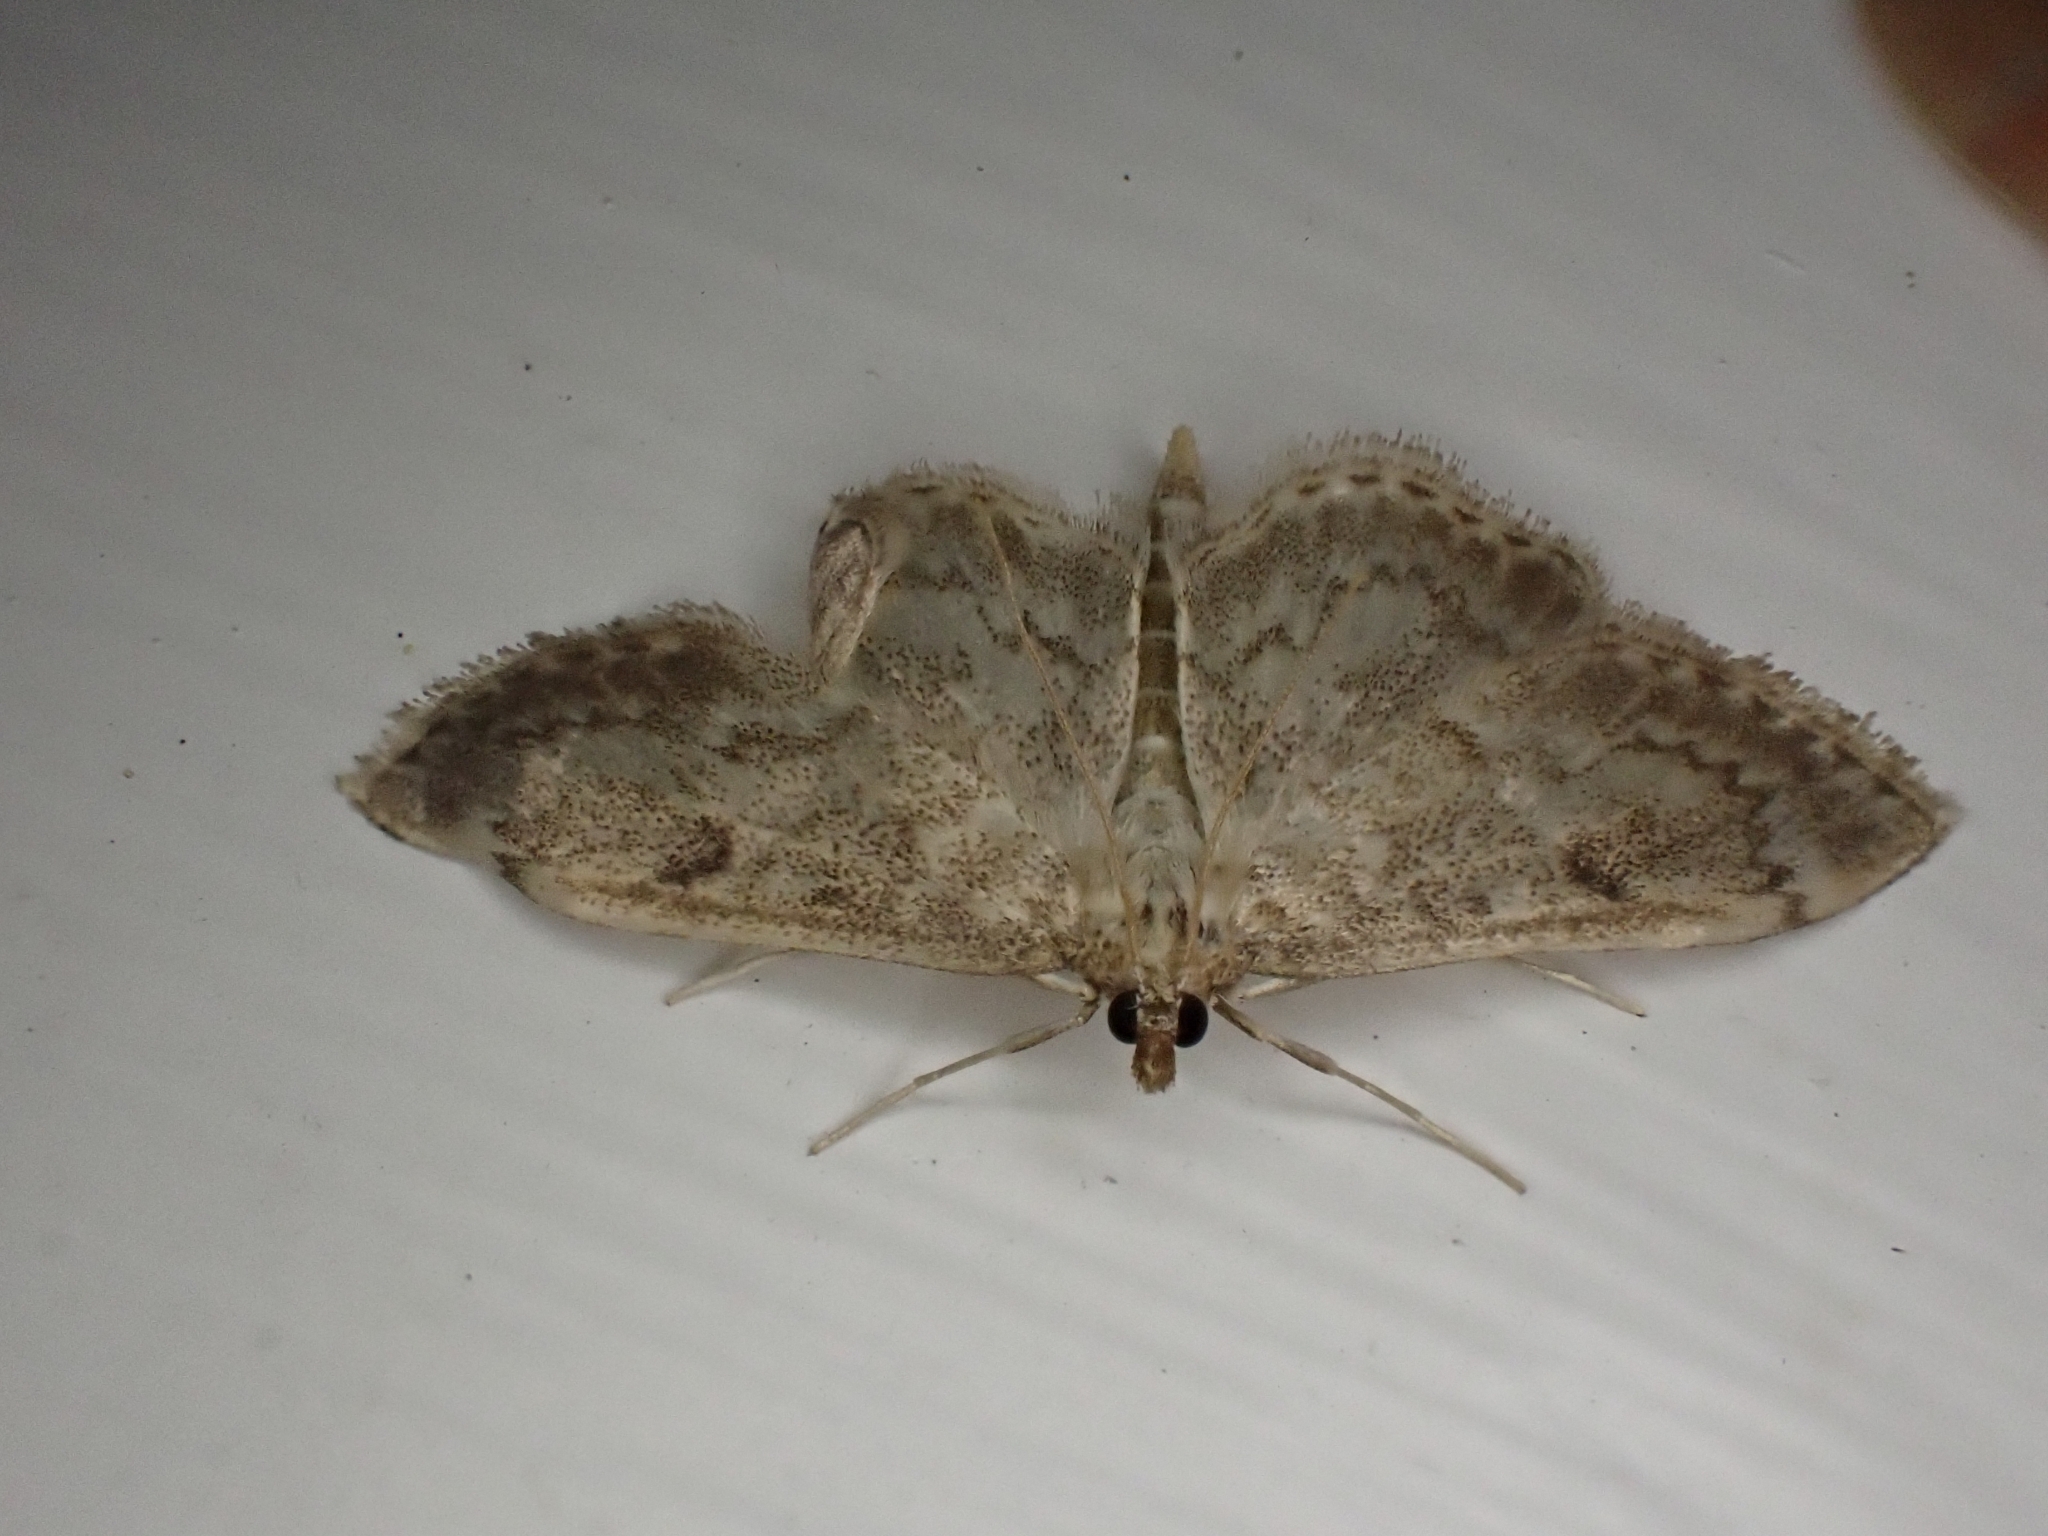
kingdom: Animalia
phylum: Arthropoda
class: Insecta
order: Lepidoptera
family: Crambidae
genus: Anania
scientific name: Anania perlucidalis
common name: Fenland pearl
